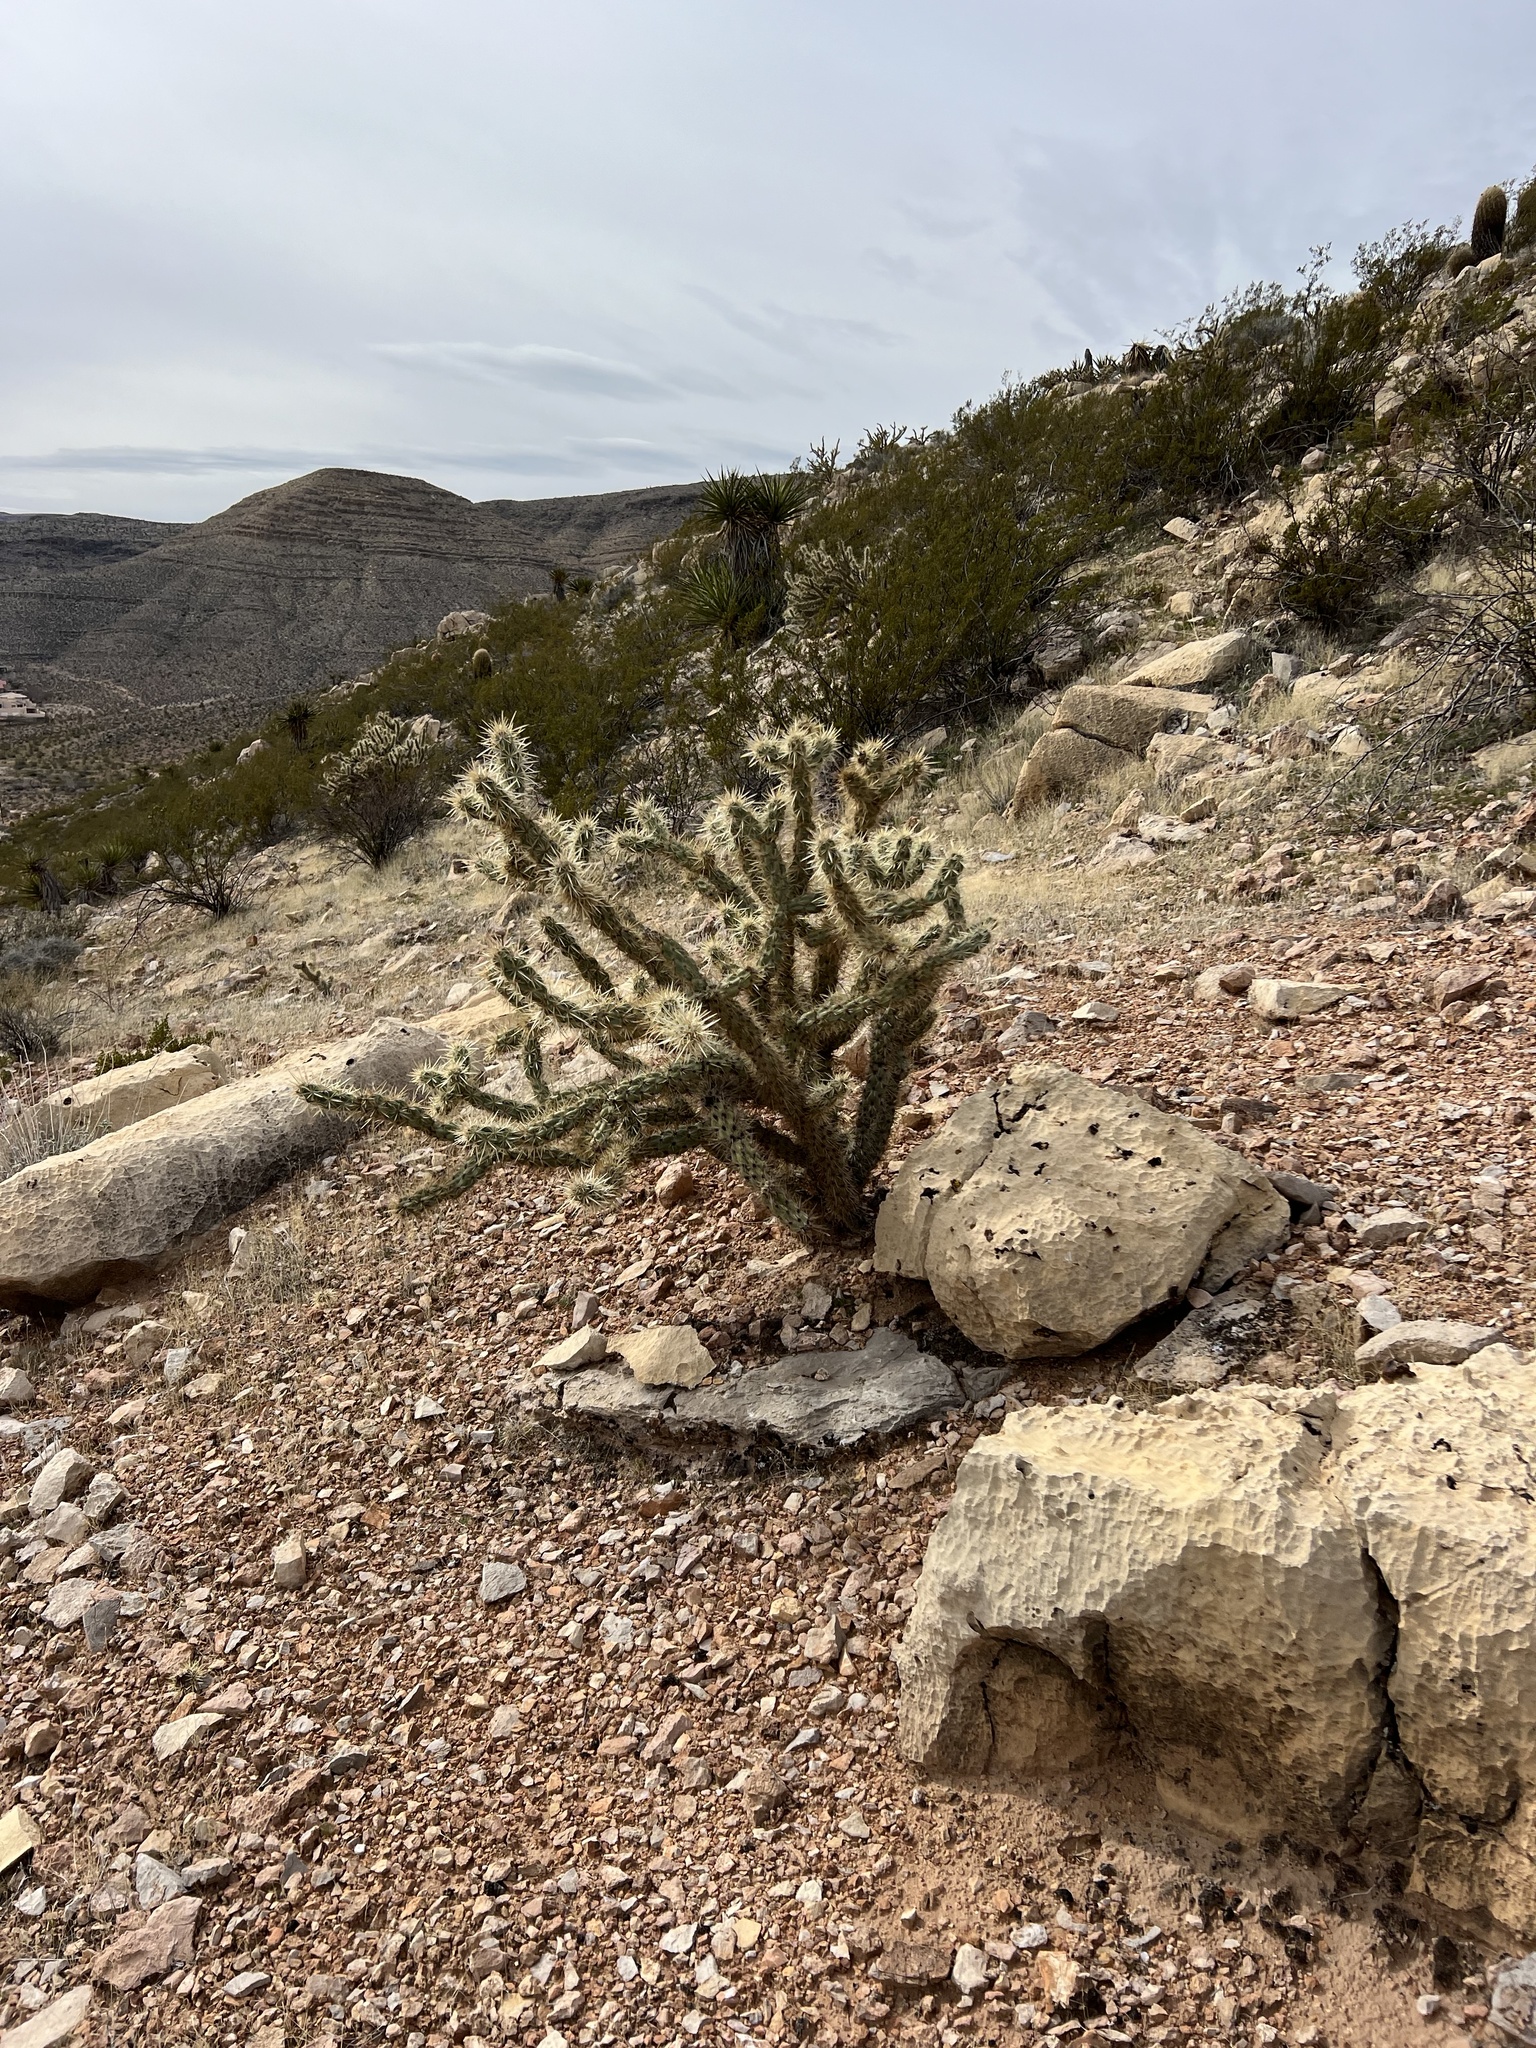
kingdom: Plantae
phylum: Tracheophyta
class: Magnoliopsida
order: Caryophyllales
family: Cactaceae
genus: Cylindropuntia
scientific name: Cylindropuntia acanthocarpa
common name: Buckhorn cholla
